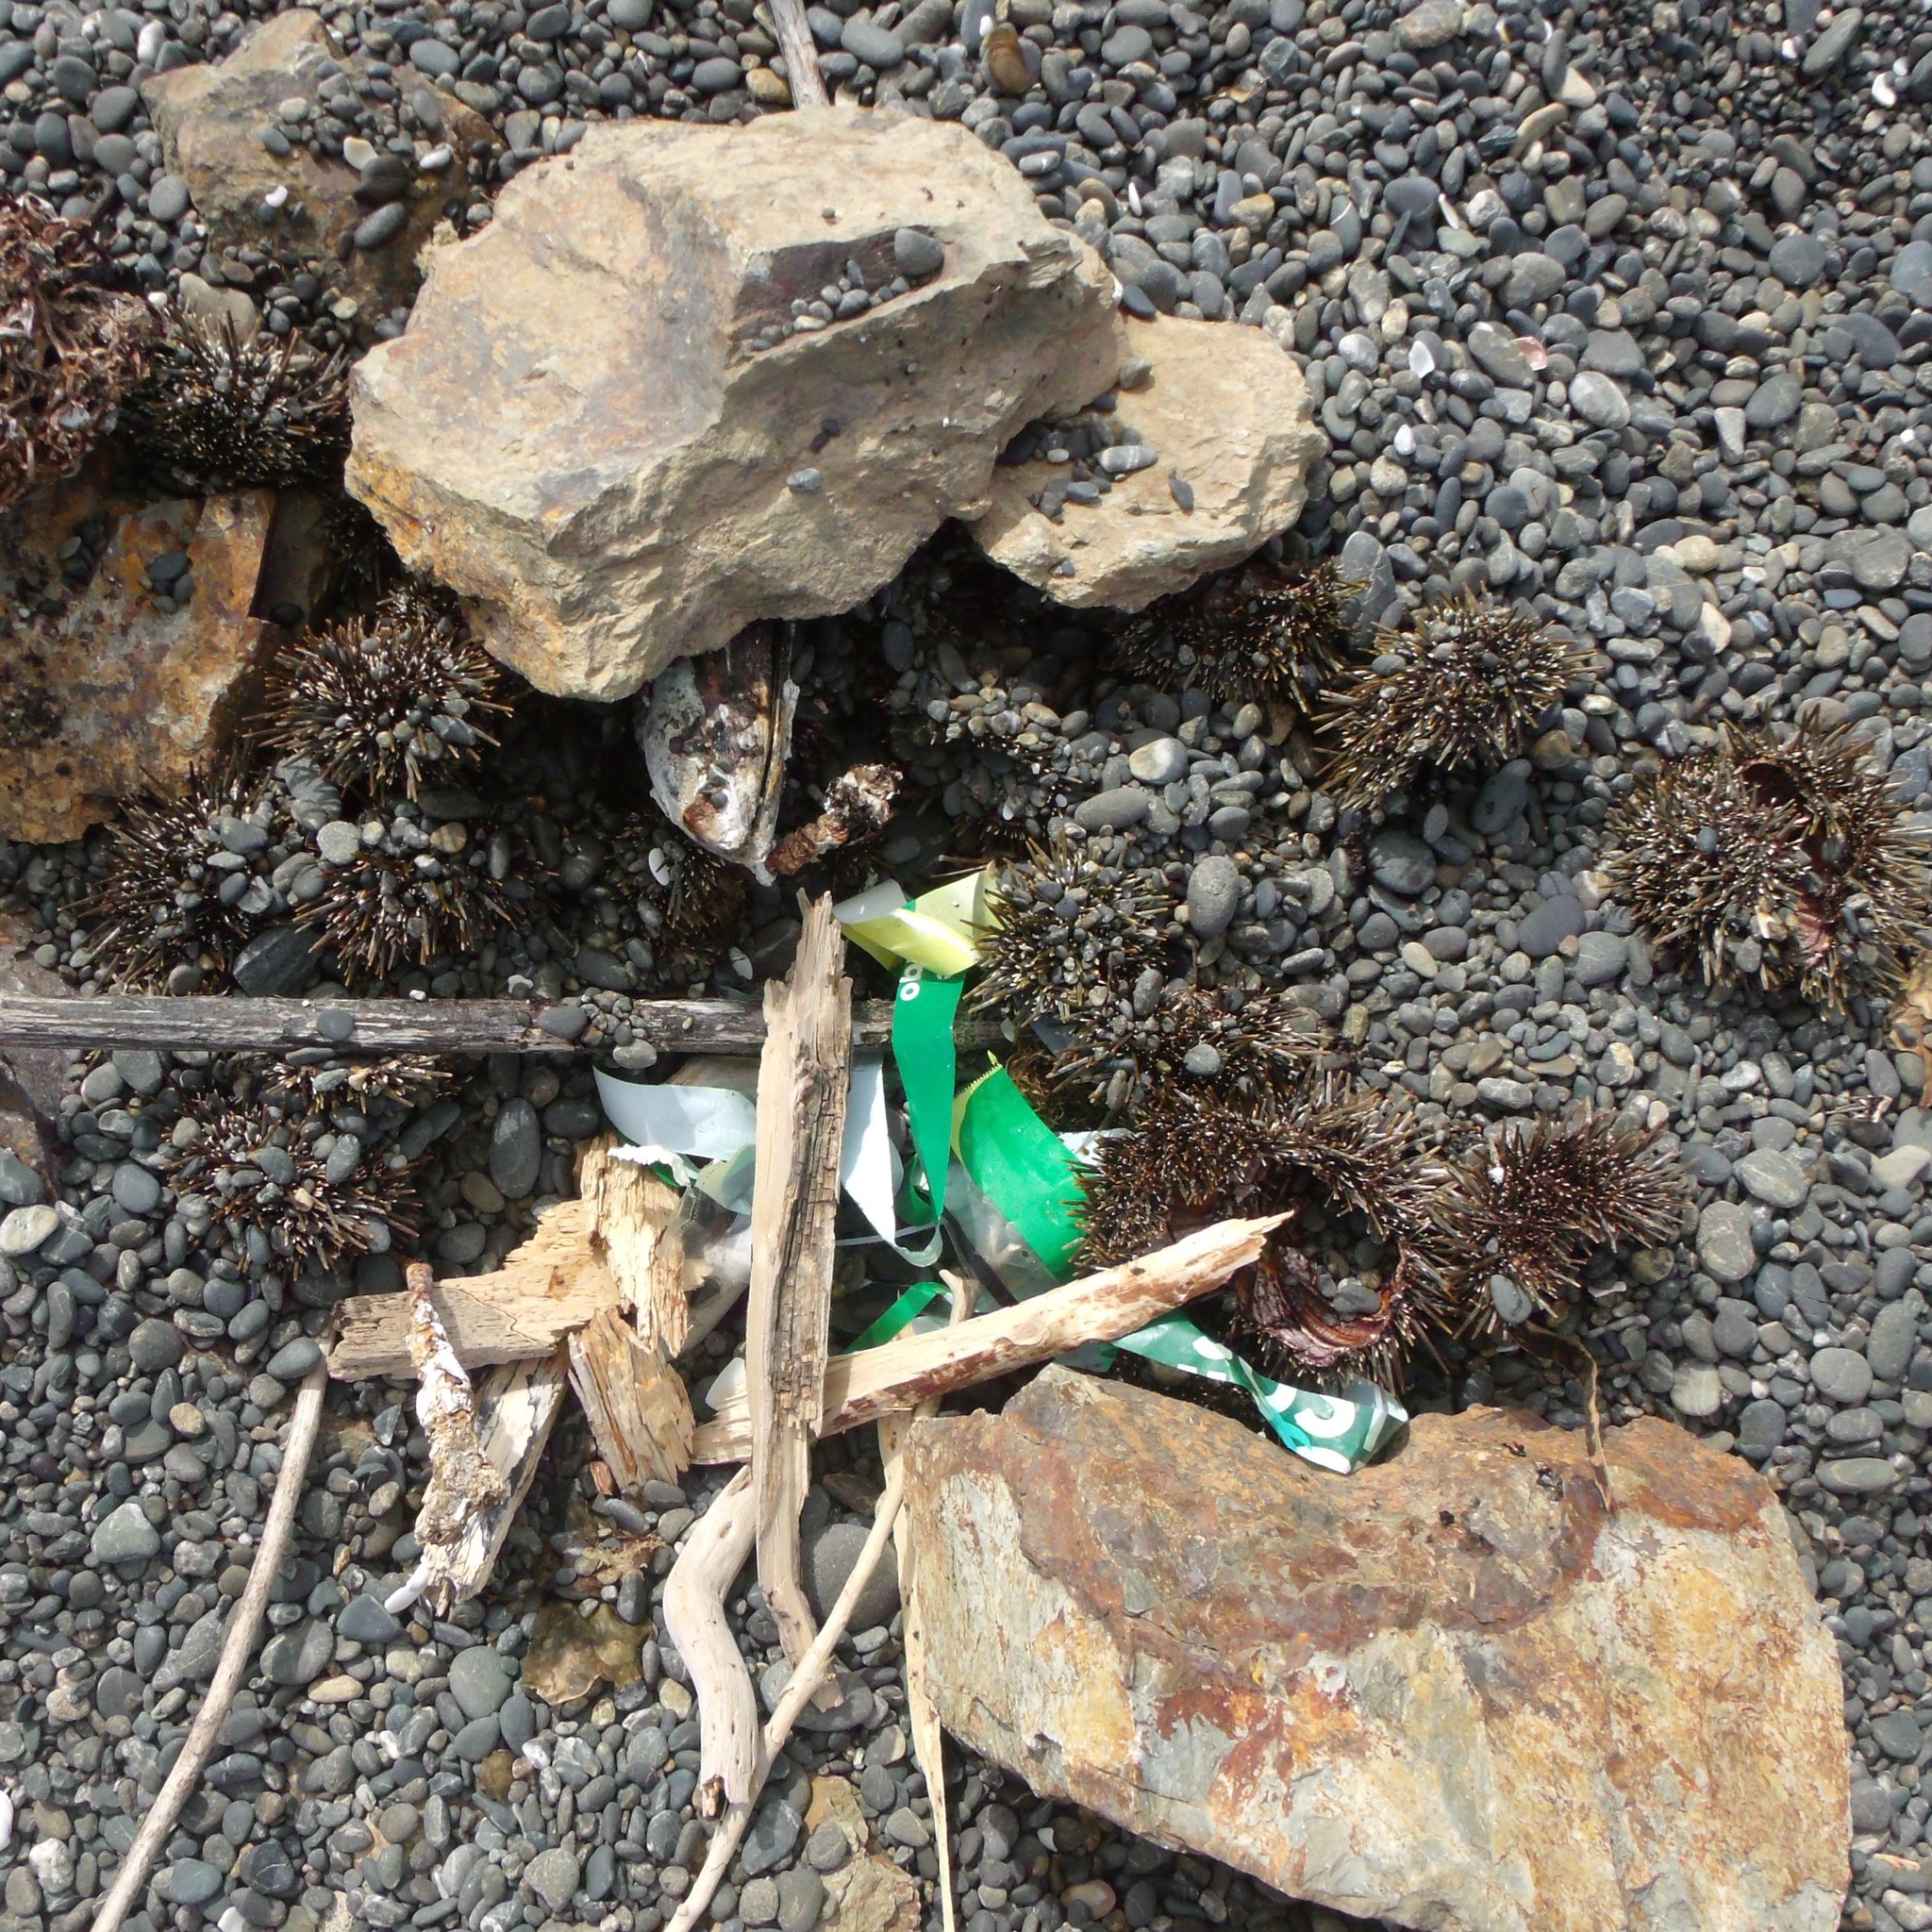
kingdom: Animalia
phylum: Echinodermata
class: Echinoidea
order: Camarodonta
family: Echinometridae
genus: Evechinus
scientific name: Evechinus chloroticus
